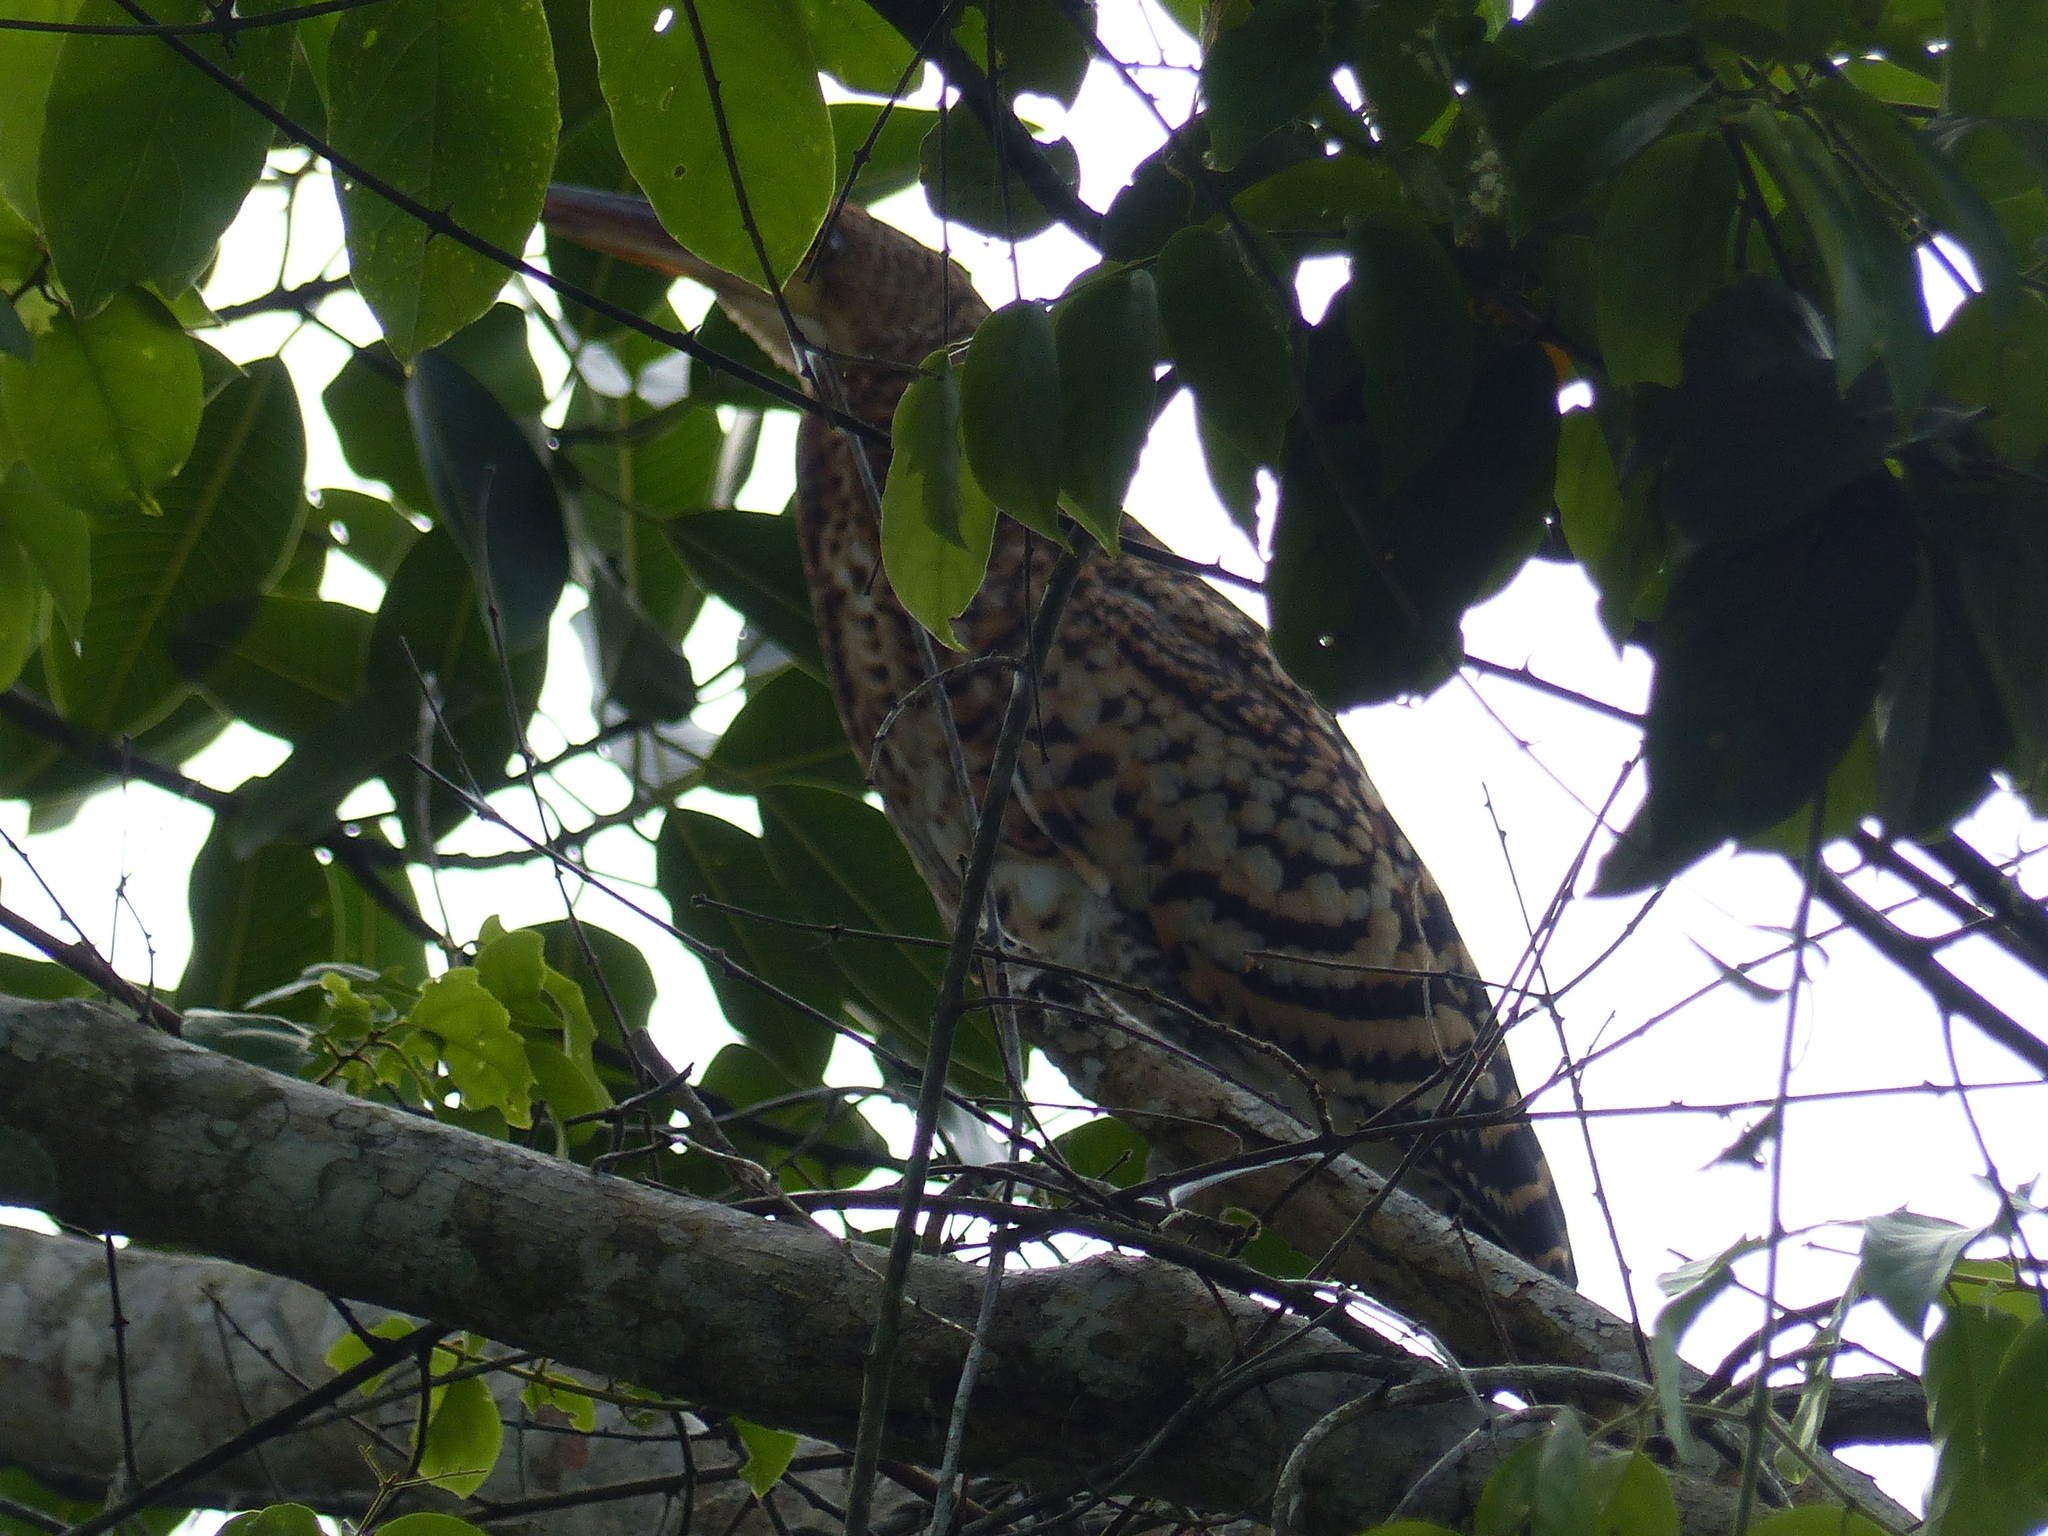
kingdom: Animalia
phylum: Chordata
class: Aves
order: Pelecaniformes
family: Ardeidae
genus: Tigrisoma
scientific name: Tigrisoma lineatum
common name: Rufescent tiger-heron
